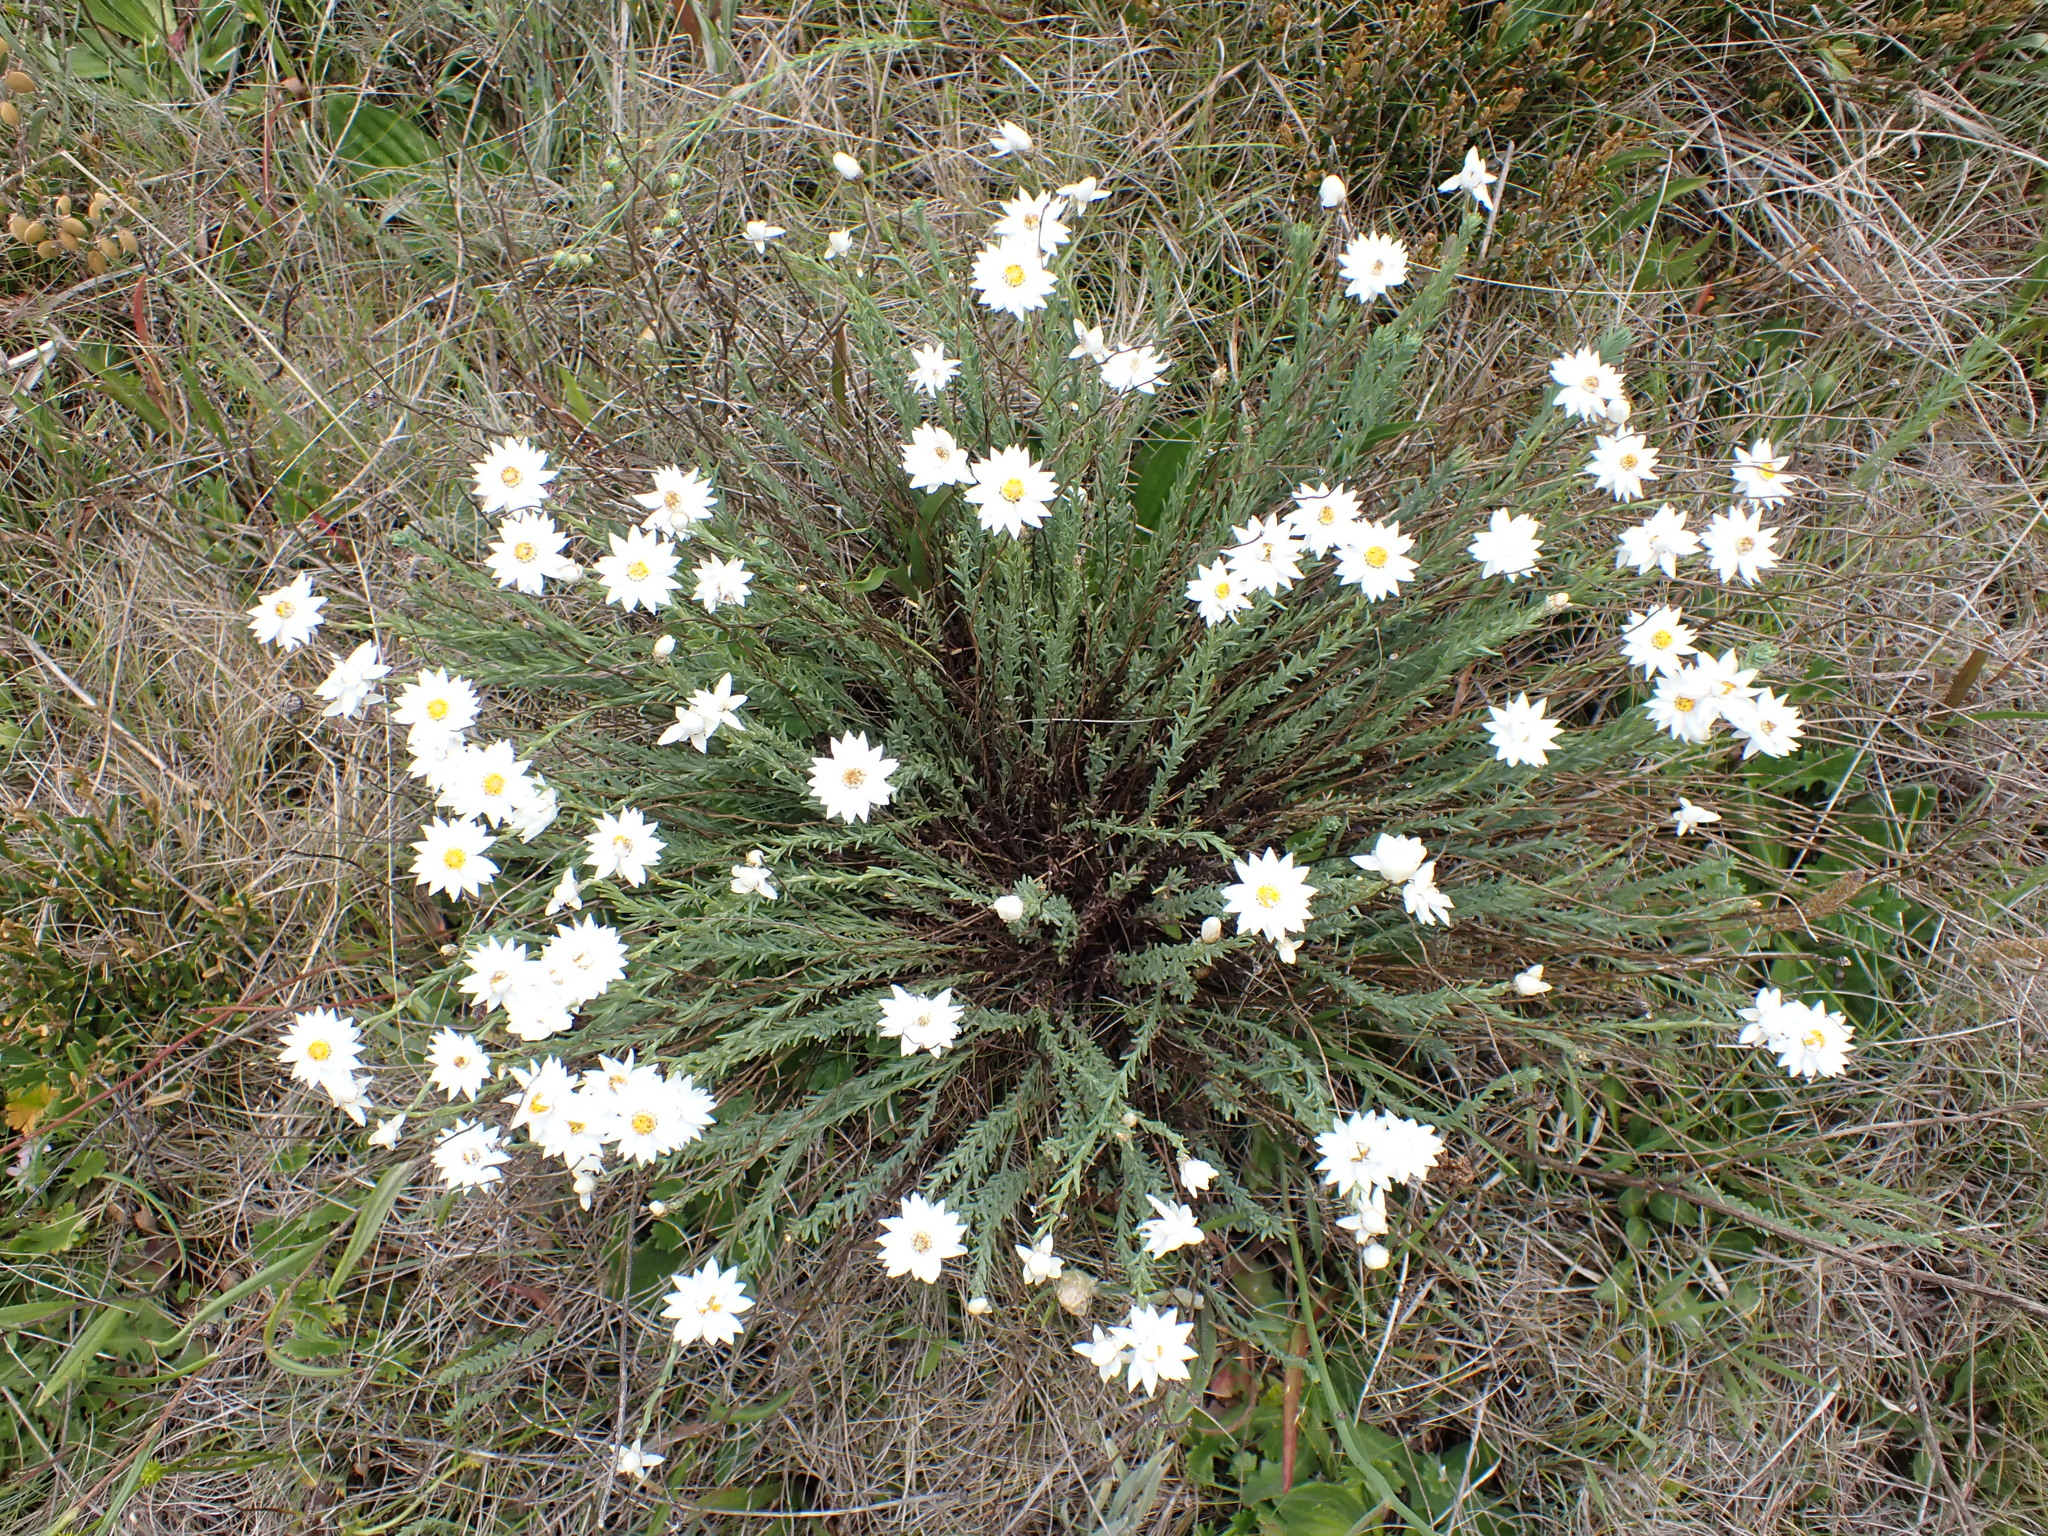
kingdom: Plantae
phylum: Tracheophyta
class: Magnoliopsida
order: Asterales
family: Asteraceae
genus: Rhodanthe
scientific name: Rhodanthe anthemoides
